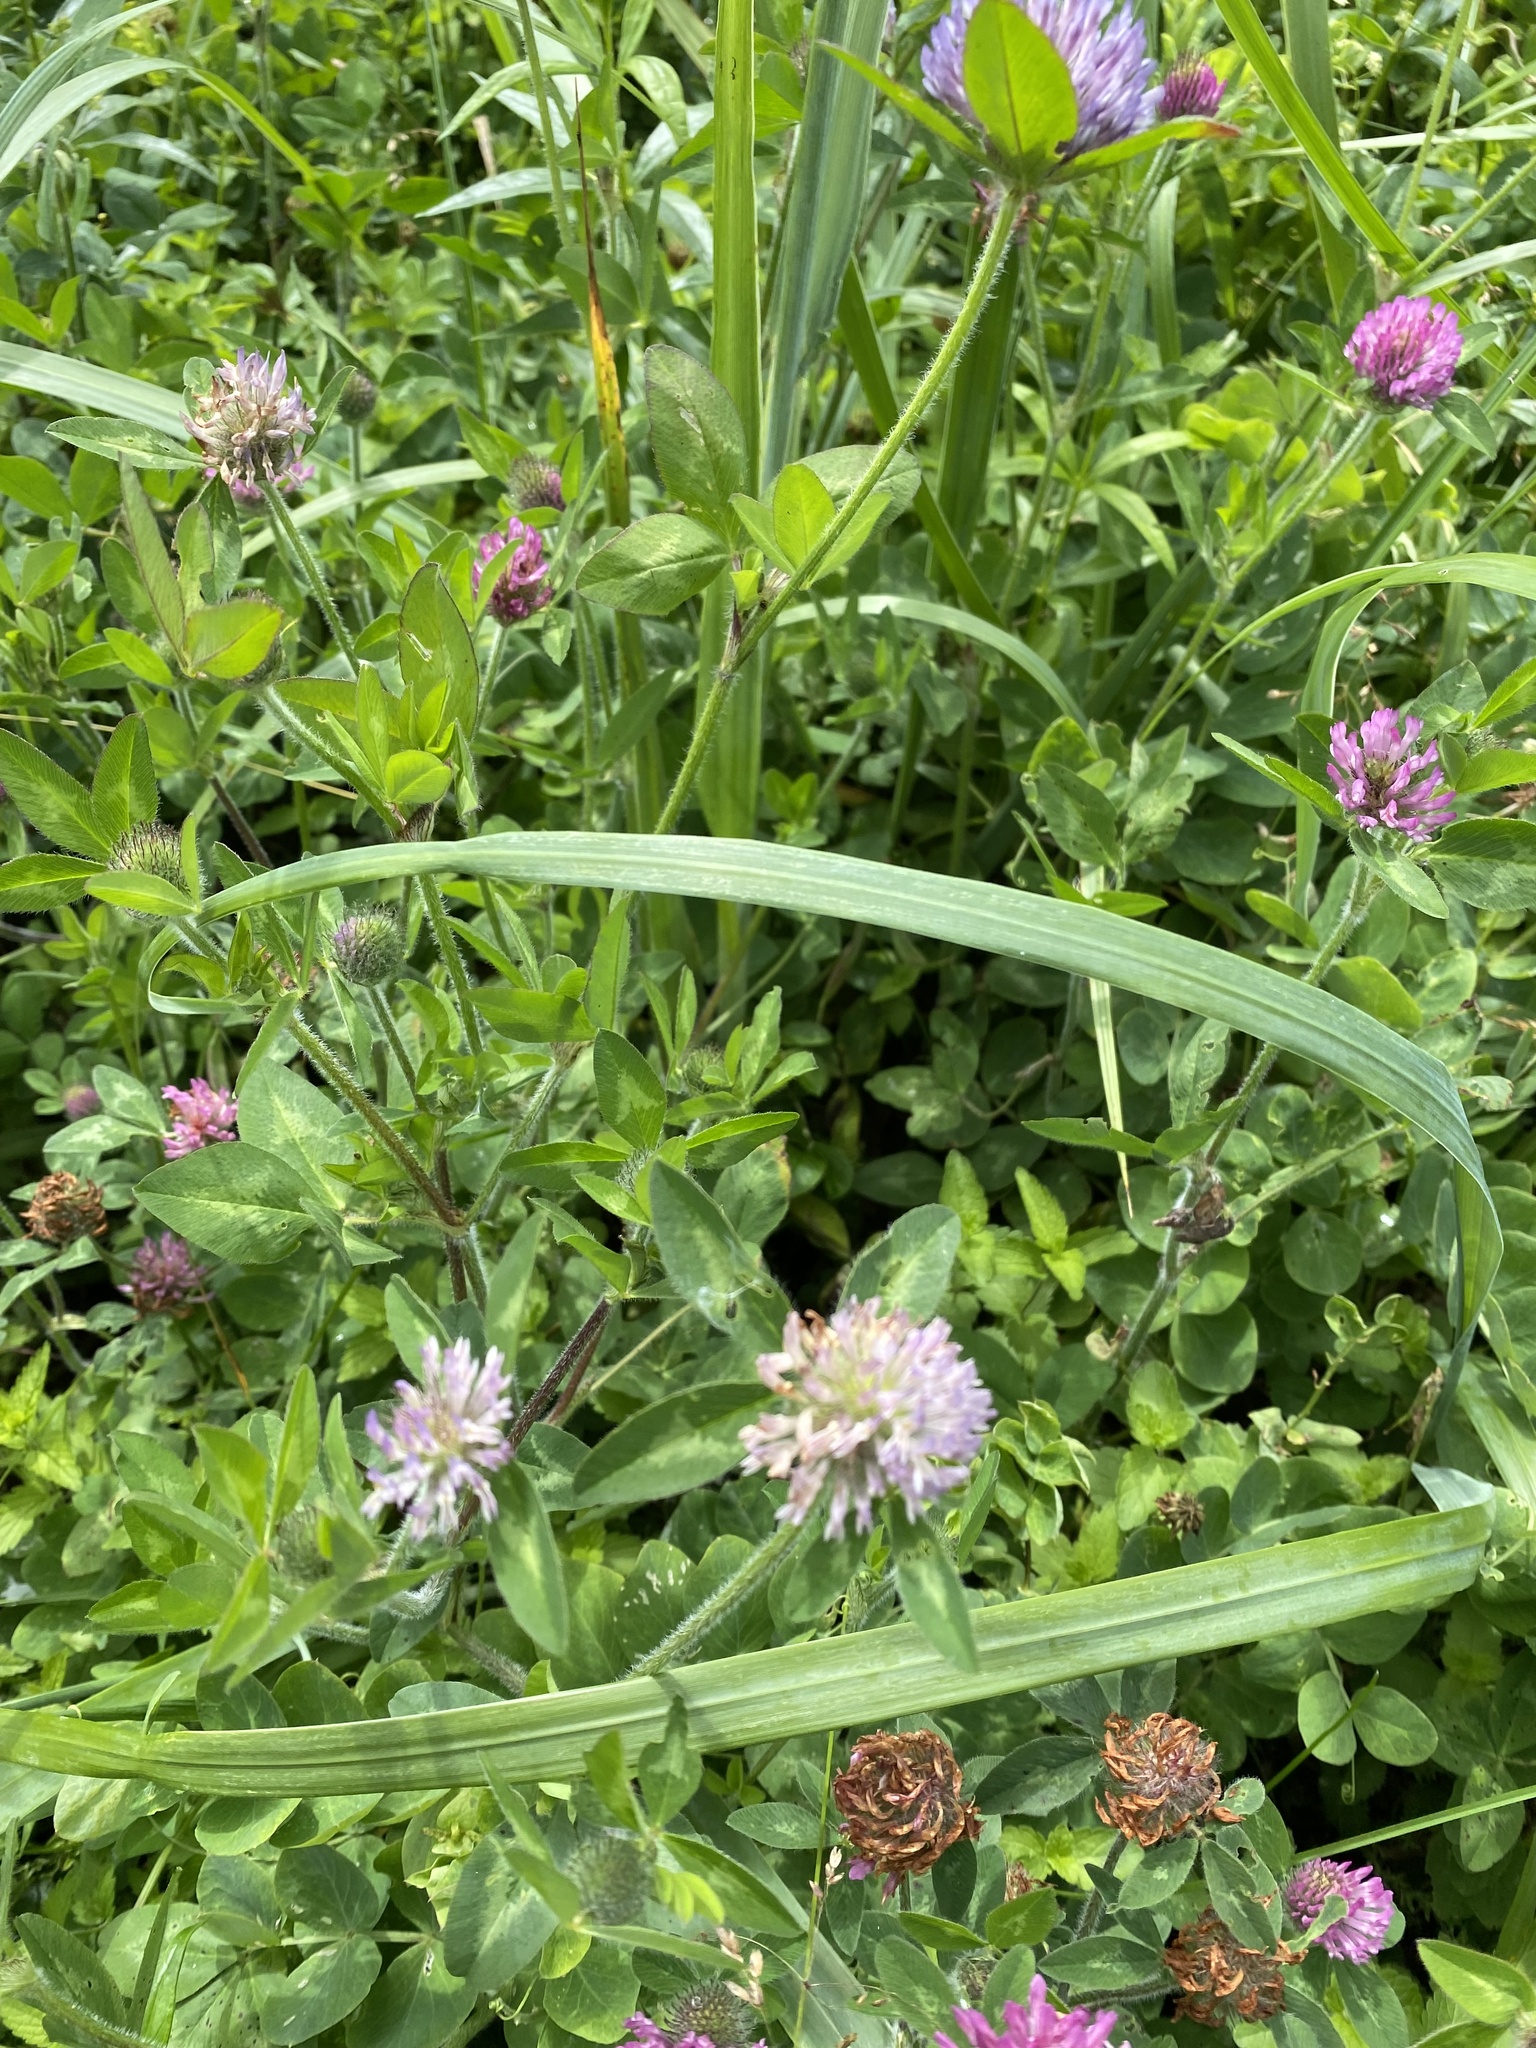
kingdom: Plantae
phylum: Tracheophyta
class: Magnoliopsida
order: Fabales
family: Fabaceae
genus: Trifolium
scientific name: Trifolium pratense
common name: Red clover
